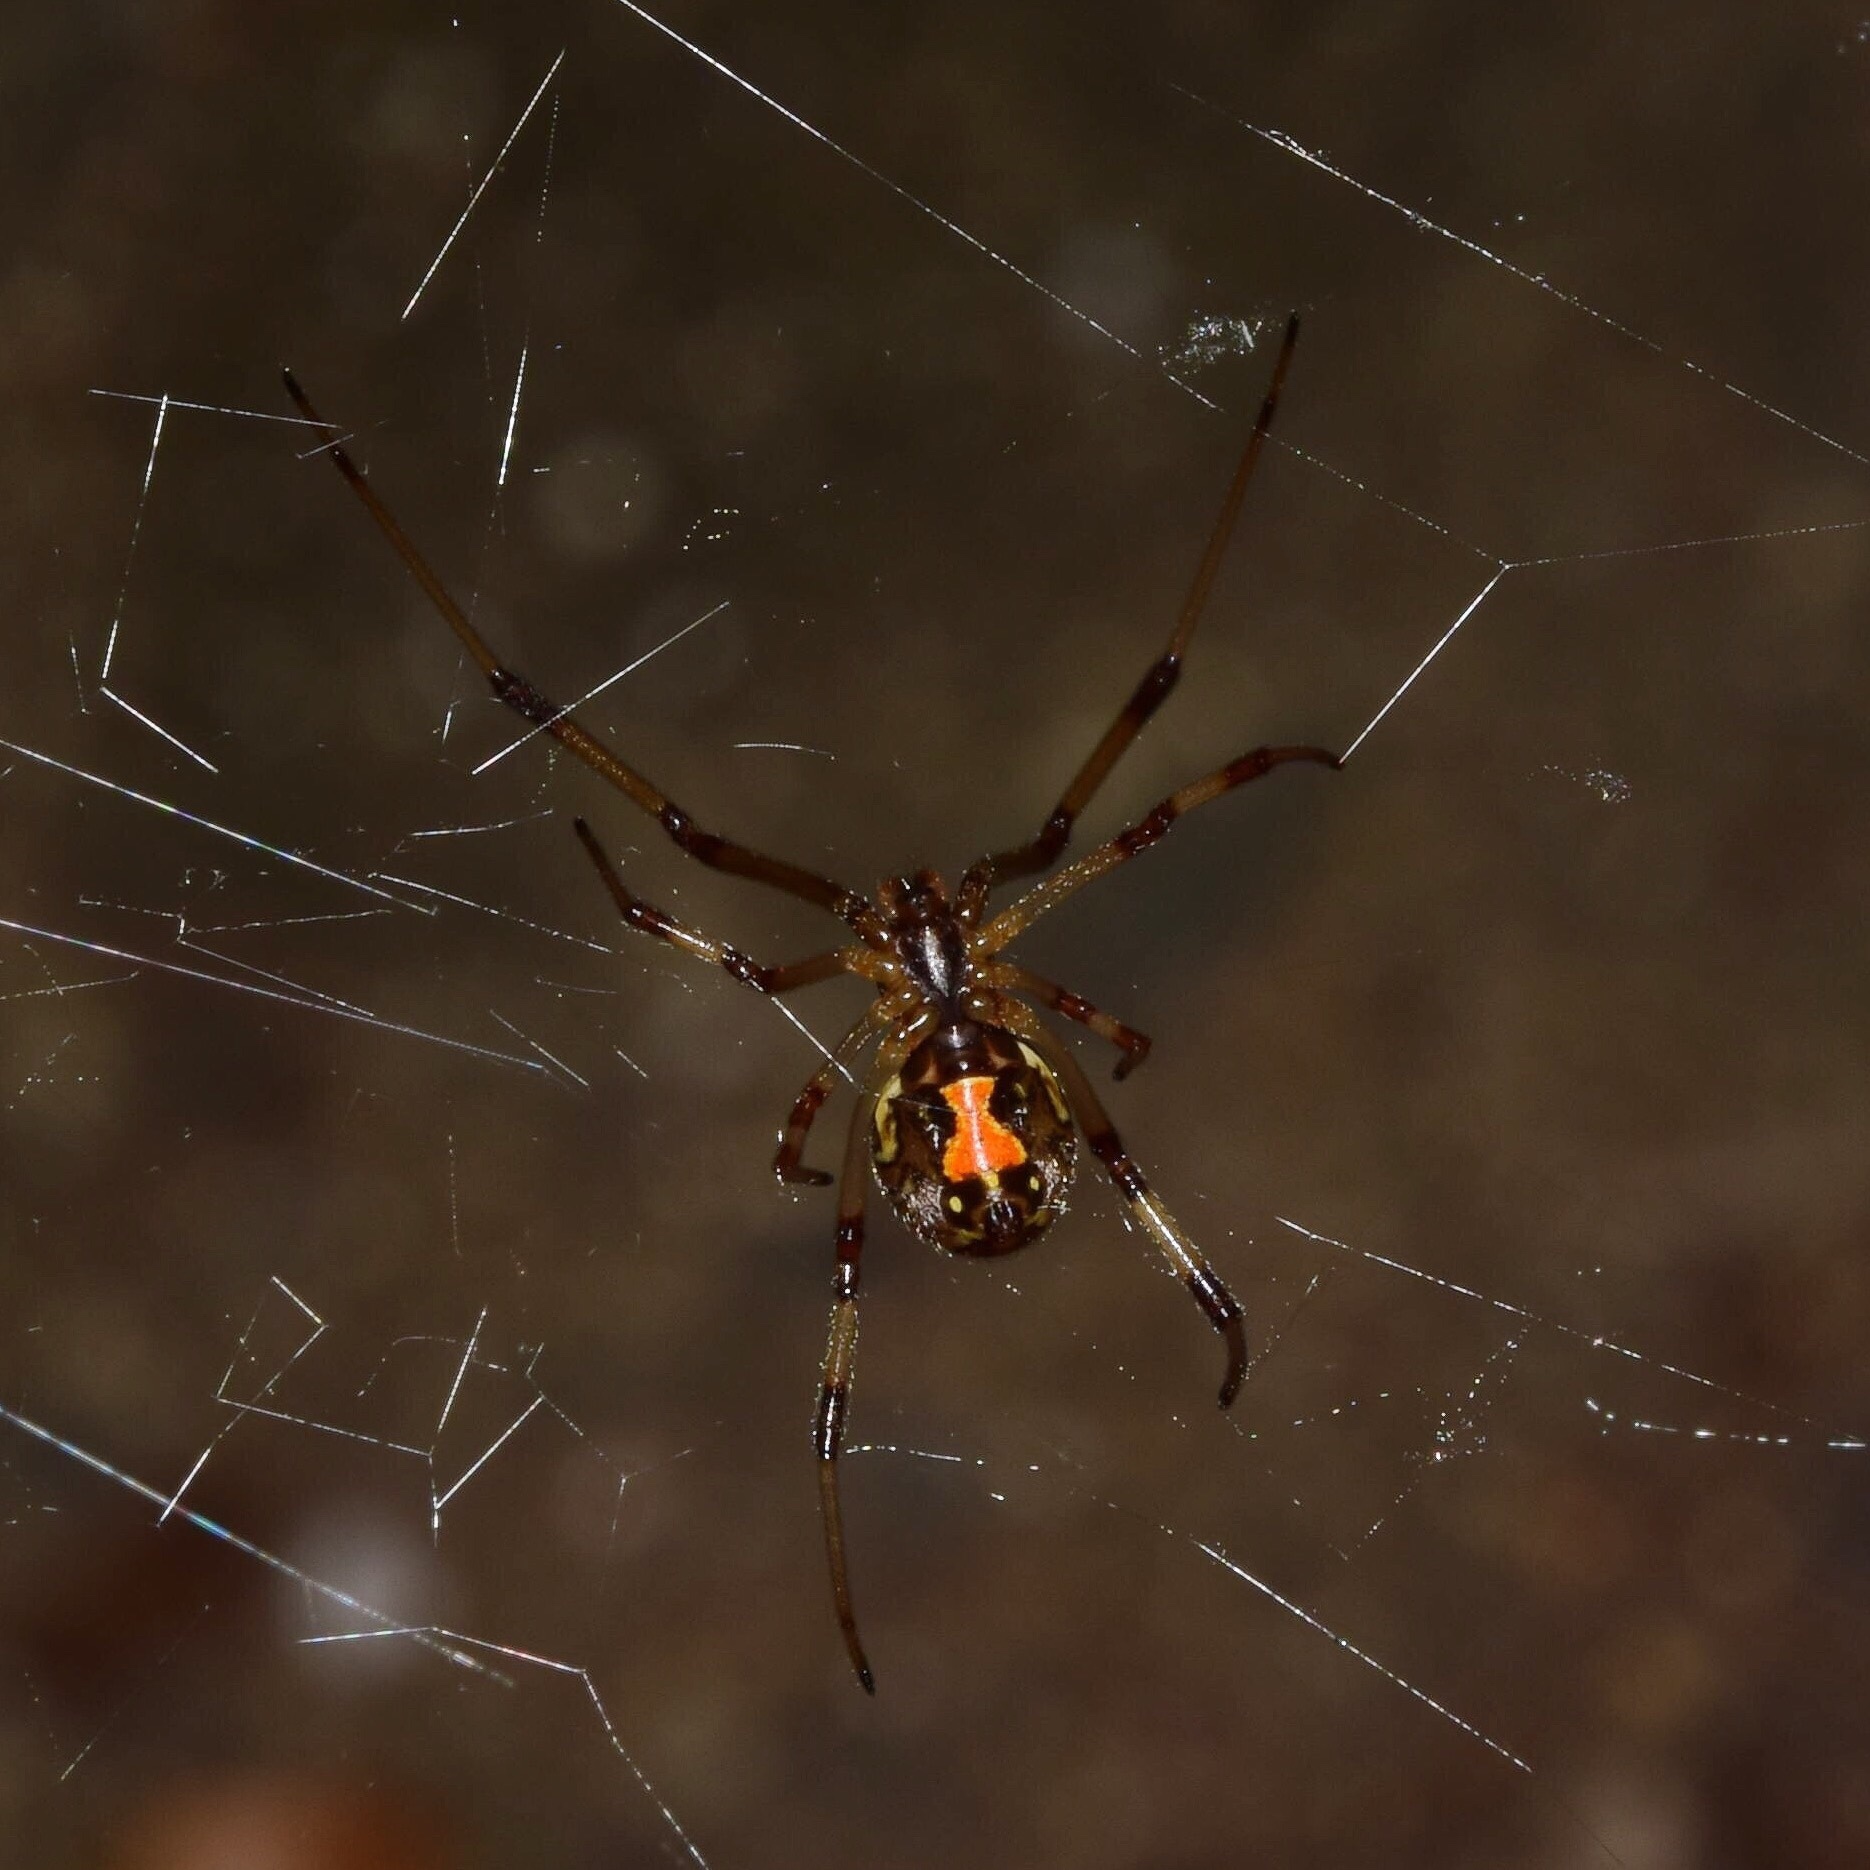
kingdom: Animalia
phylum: Arthropoda
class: Arachnida
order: Araneae
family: Theridiidae
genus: Latrodectus
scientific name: Latrodectus geometricus
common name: Brown widow spider
